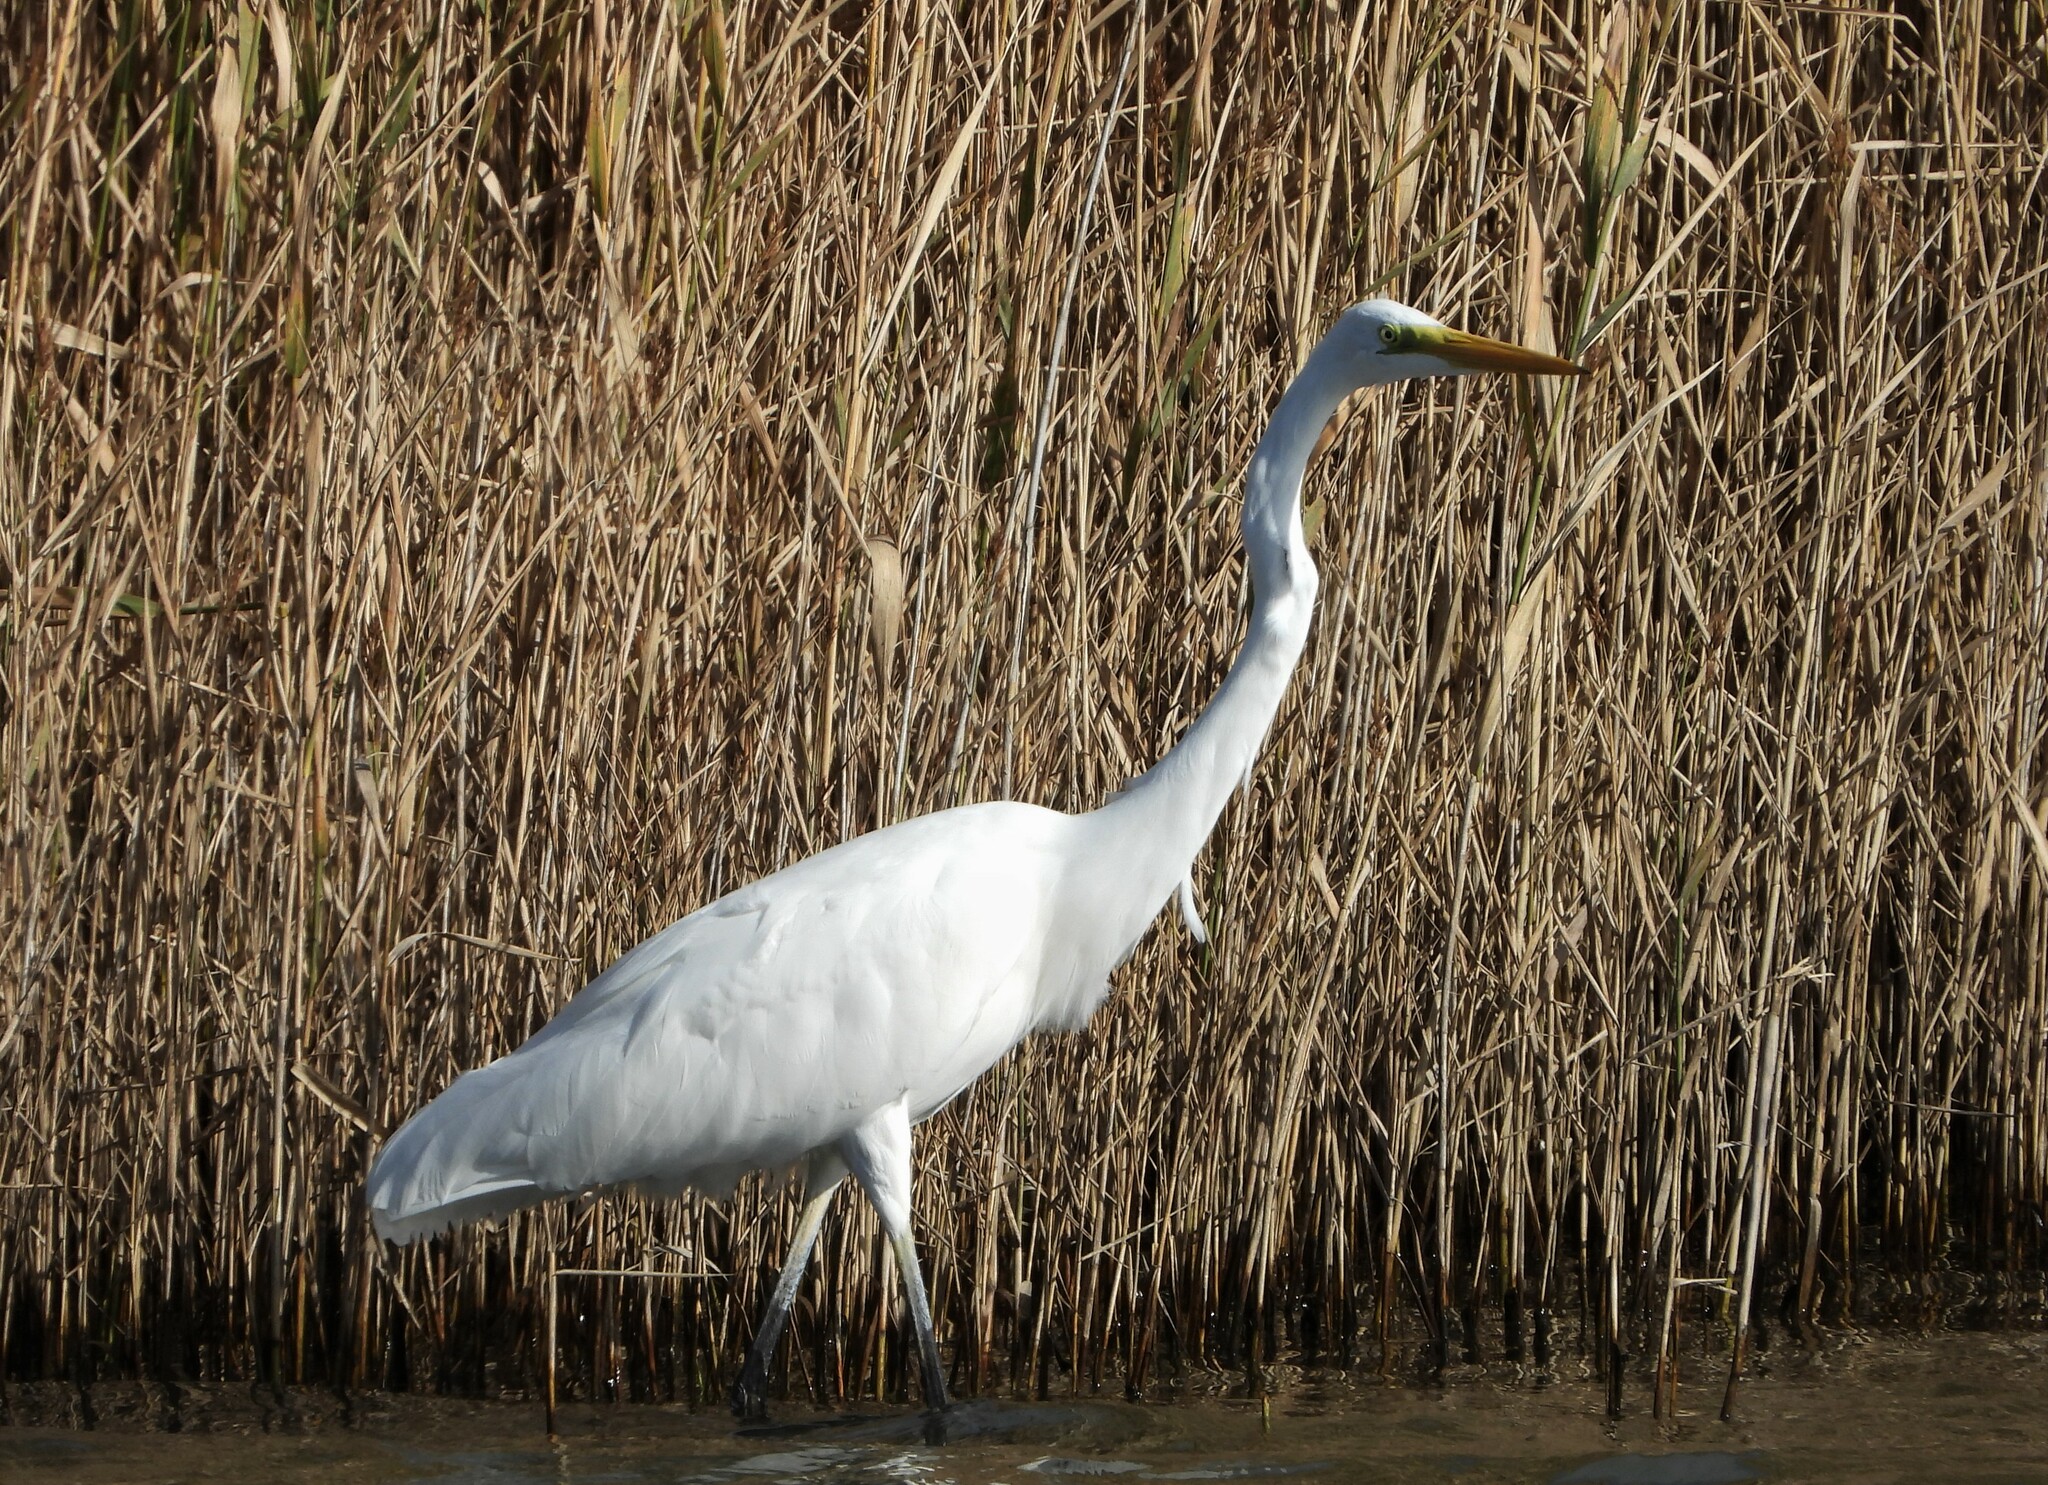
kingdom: Animalia
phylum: Chordata
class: Aves
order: Pelecaniformes
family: Ardeidae
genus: Ardea
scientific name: Ardea alba
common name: Great egret
